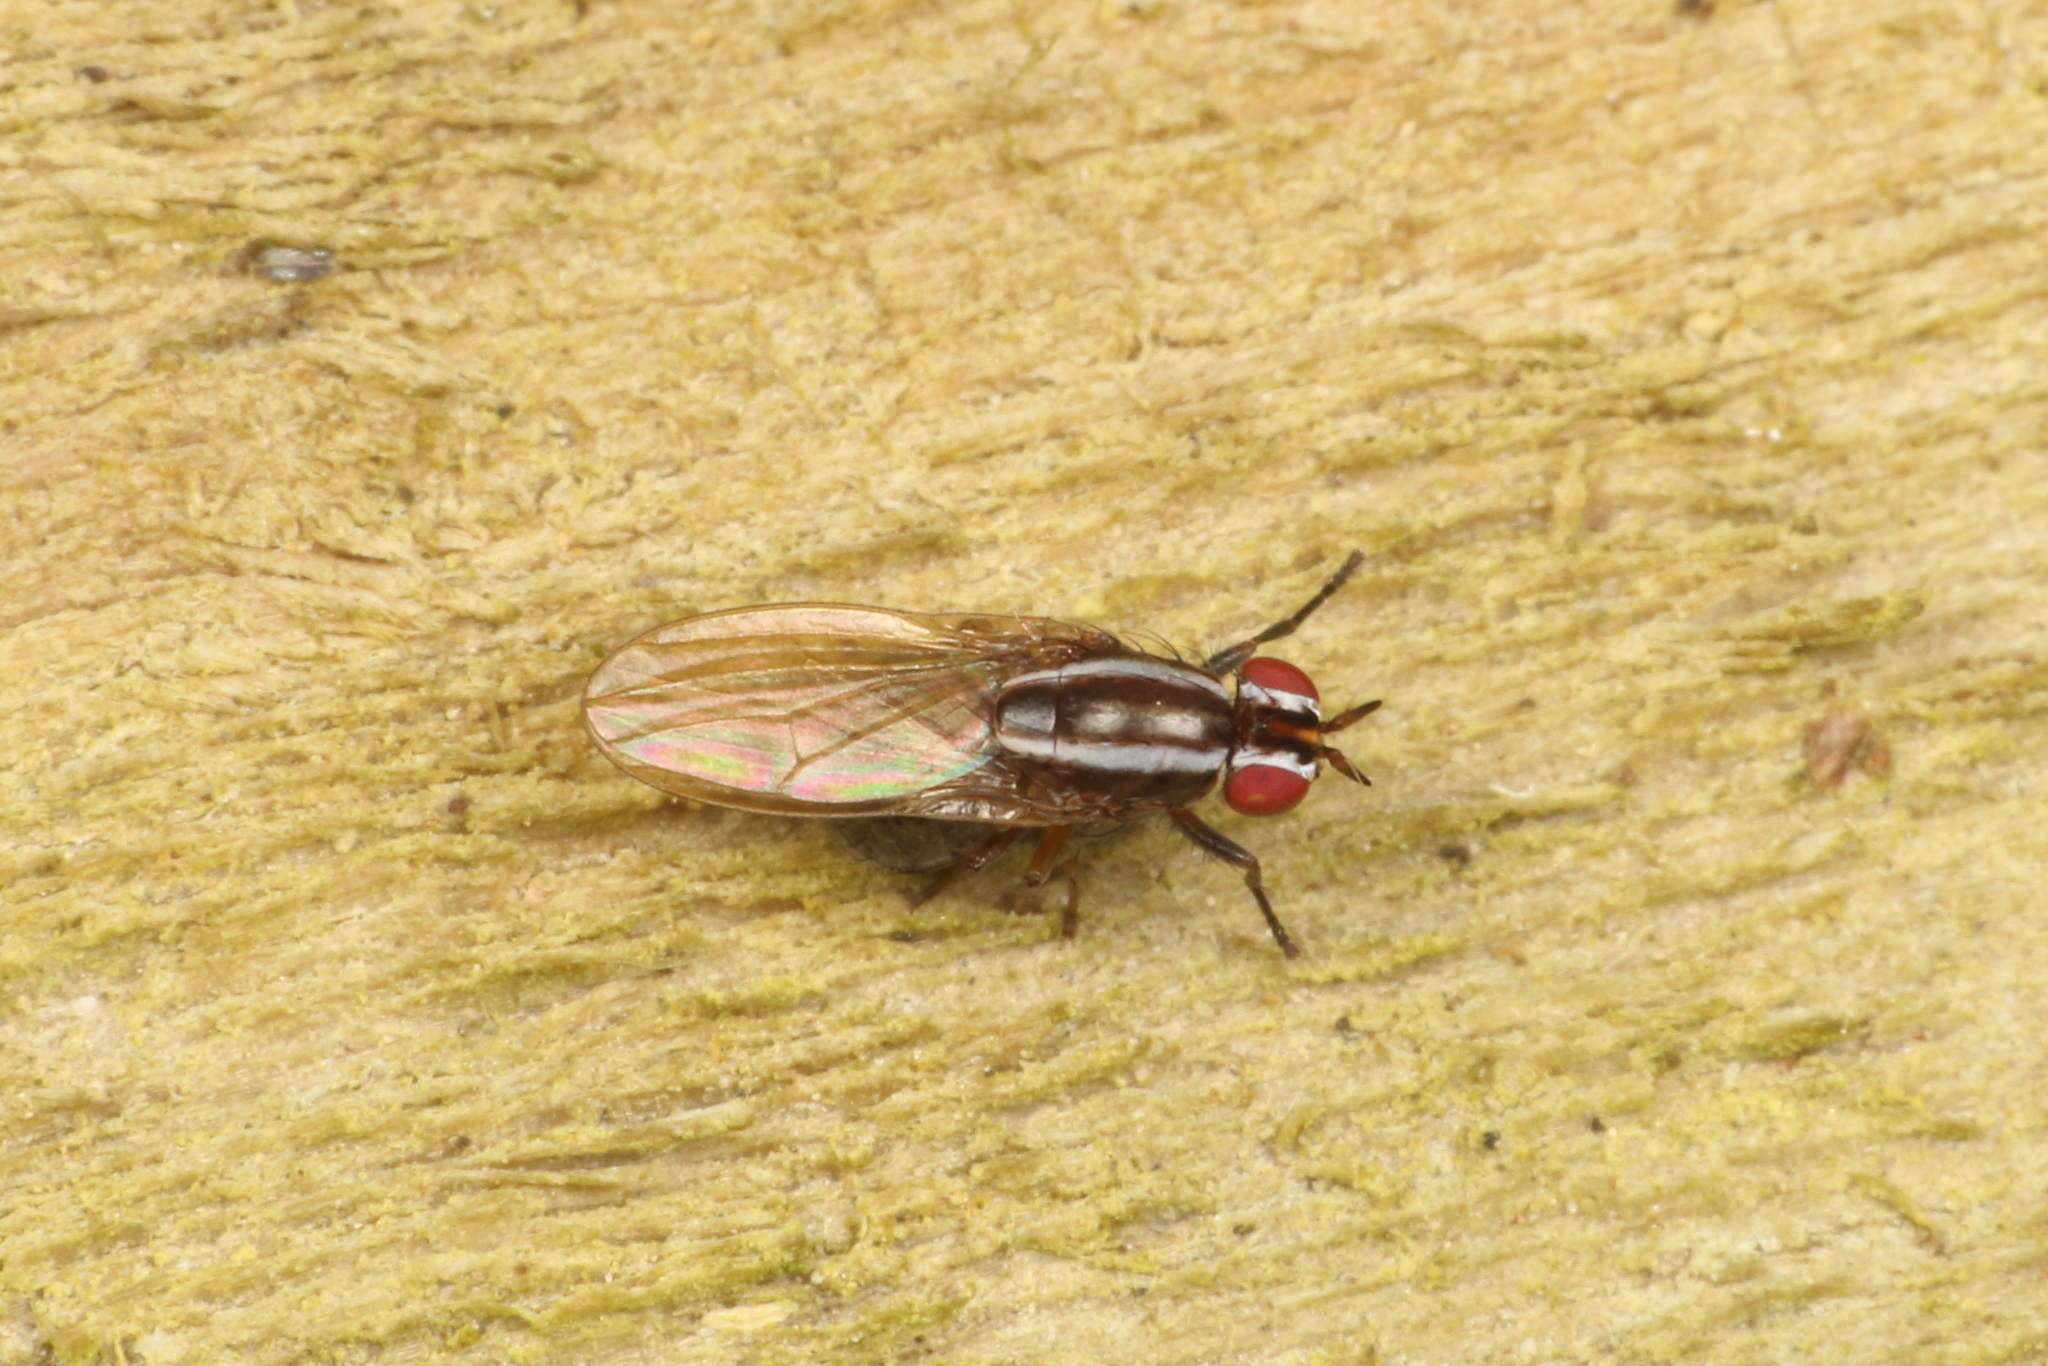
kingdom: Animalia
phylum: Arthropoda
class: Insecta
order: Diptera
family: Lauxaniidae
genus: Poecilohetaerella
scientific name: Poecilohetaerella dubiosa
